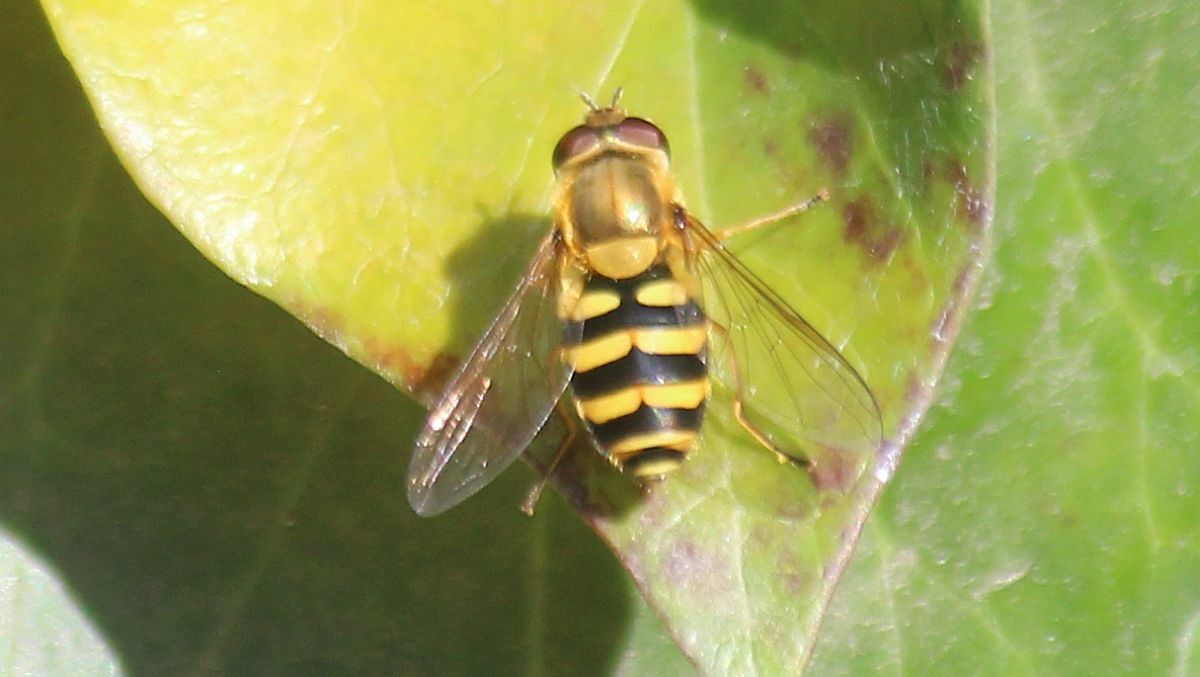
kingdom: Animalia
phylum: Arthropoda
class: Insecta
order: Diptera
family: Syrphidae
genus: Syrphus
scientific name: Syrphus
